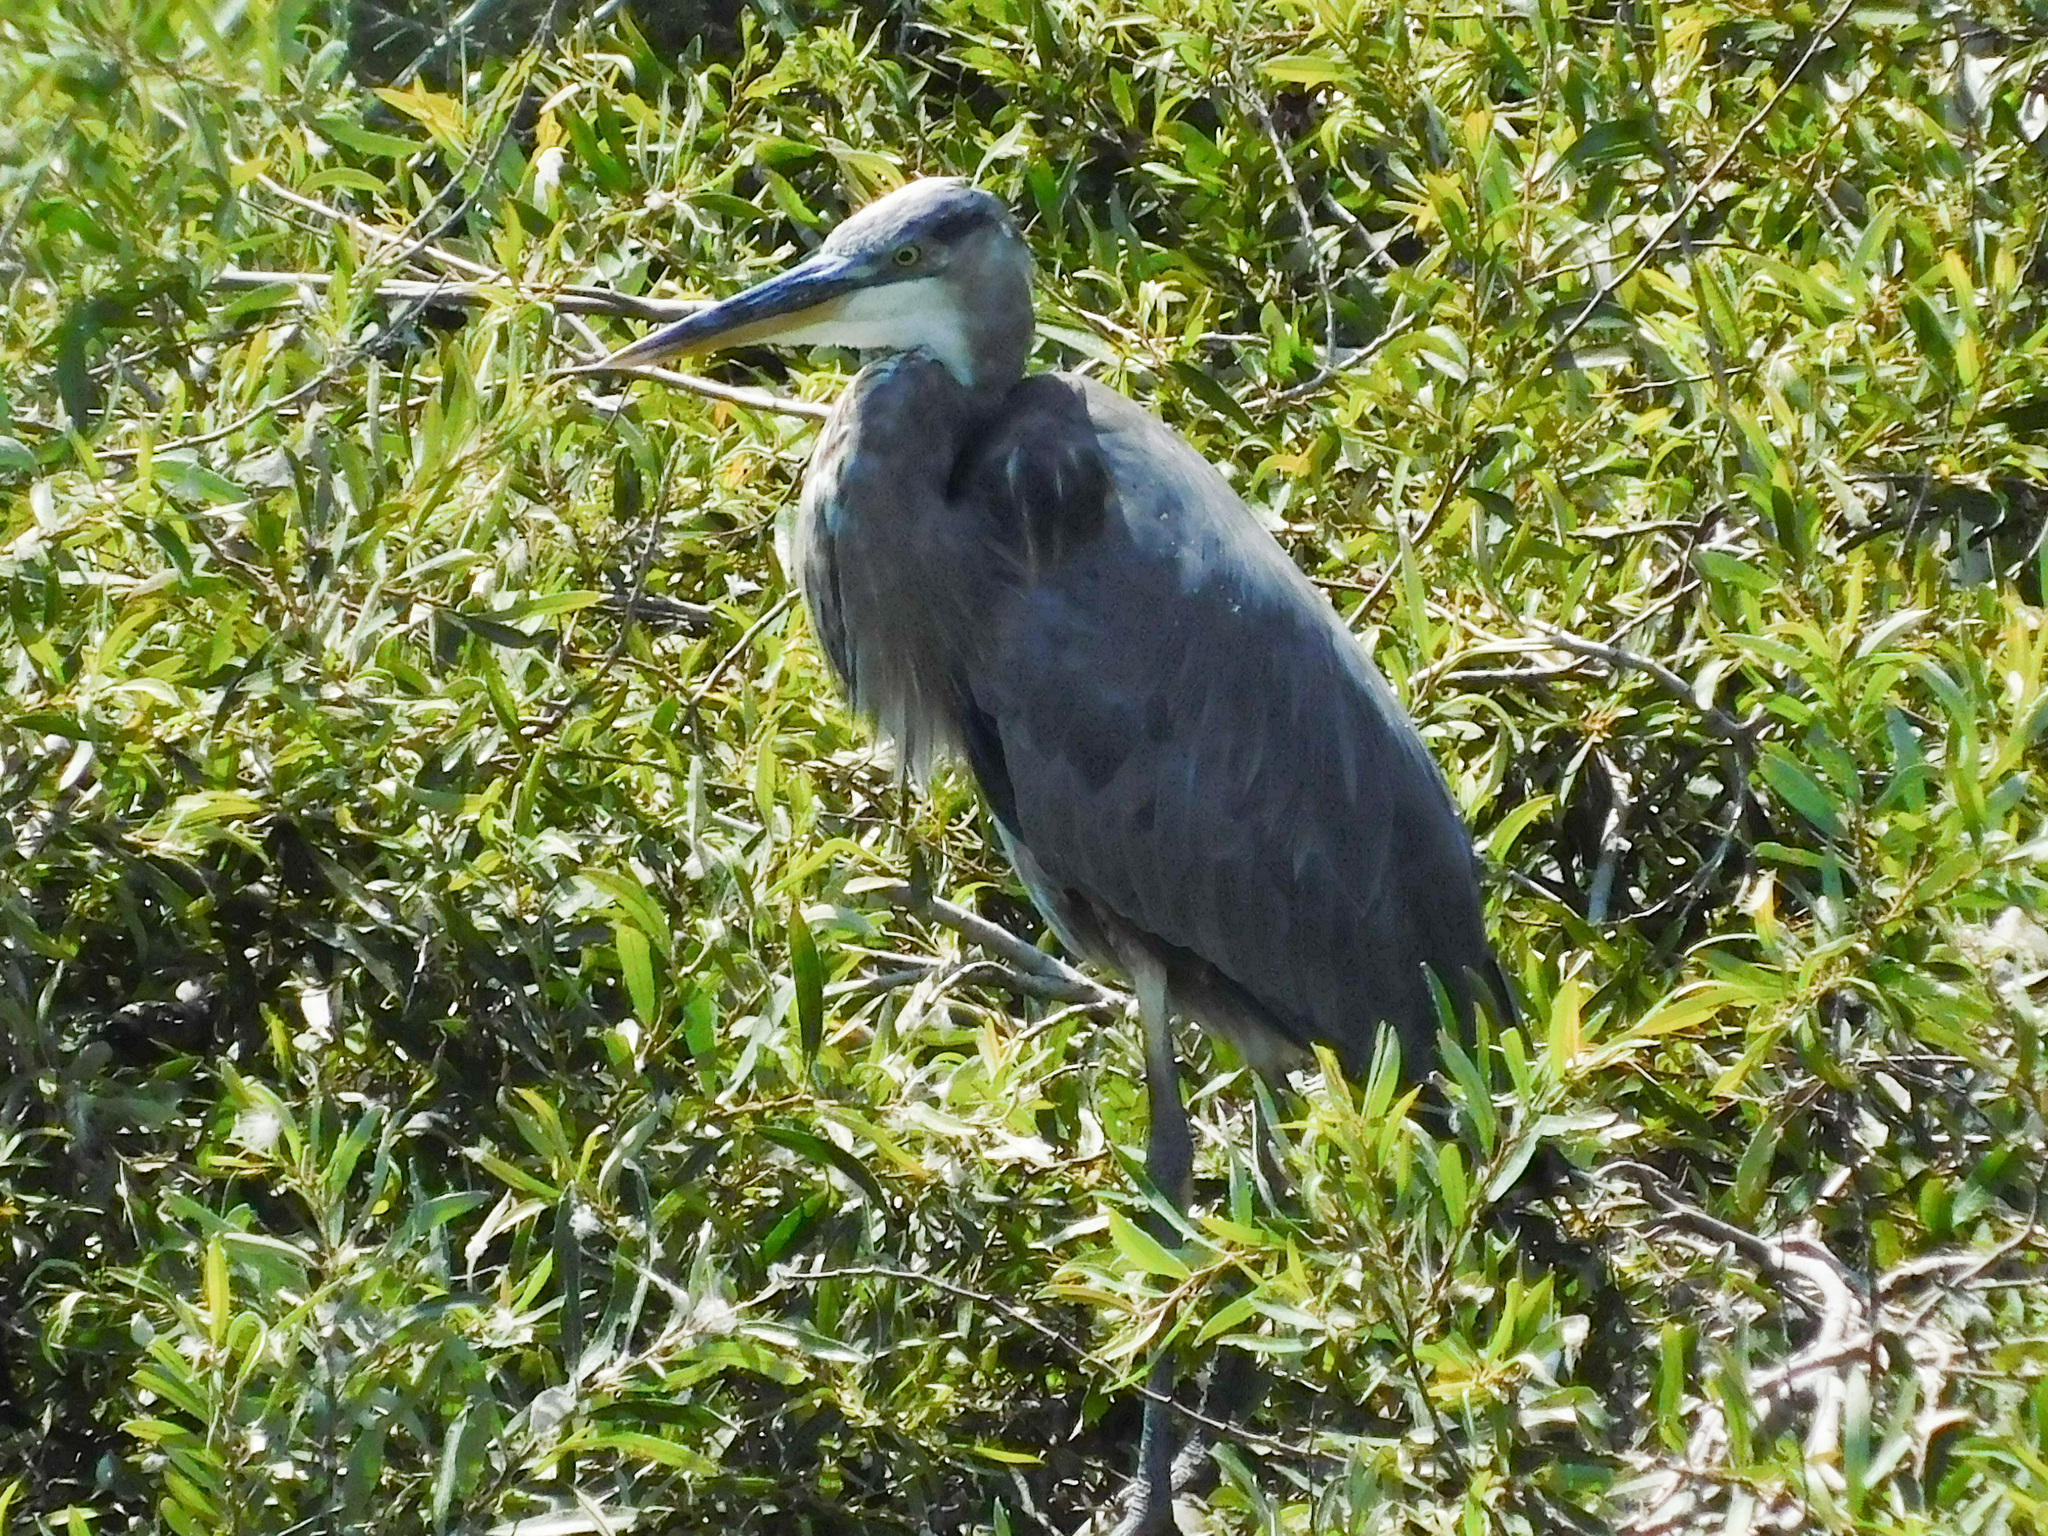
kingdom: Animalia
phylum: Chordata
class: Aves
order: Pelecaniformes
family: Ardeidae
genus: Ardea
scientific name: Ardea herodias
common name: Great blue heron
